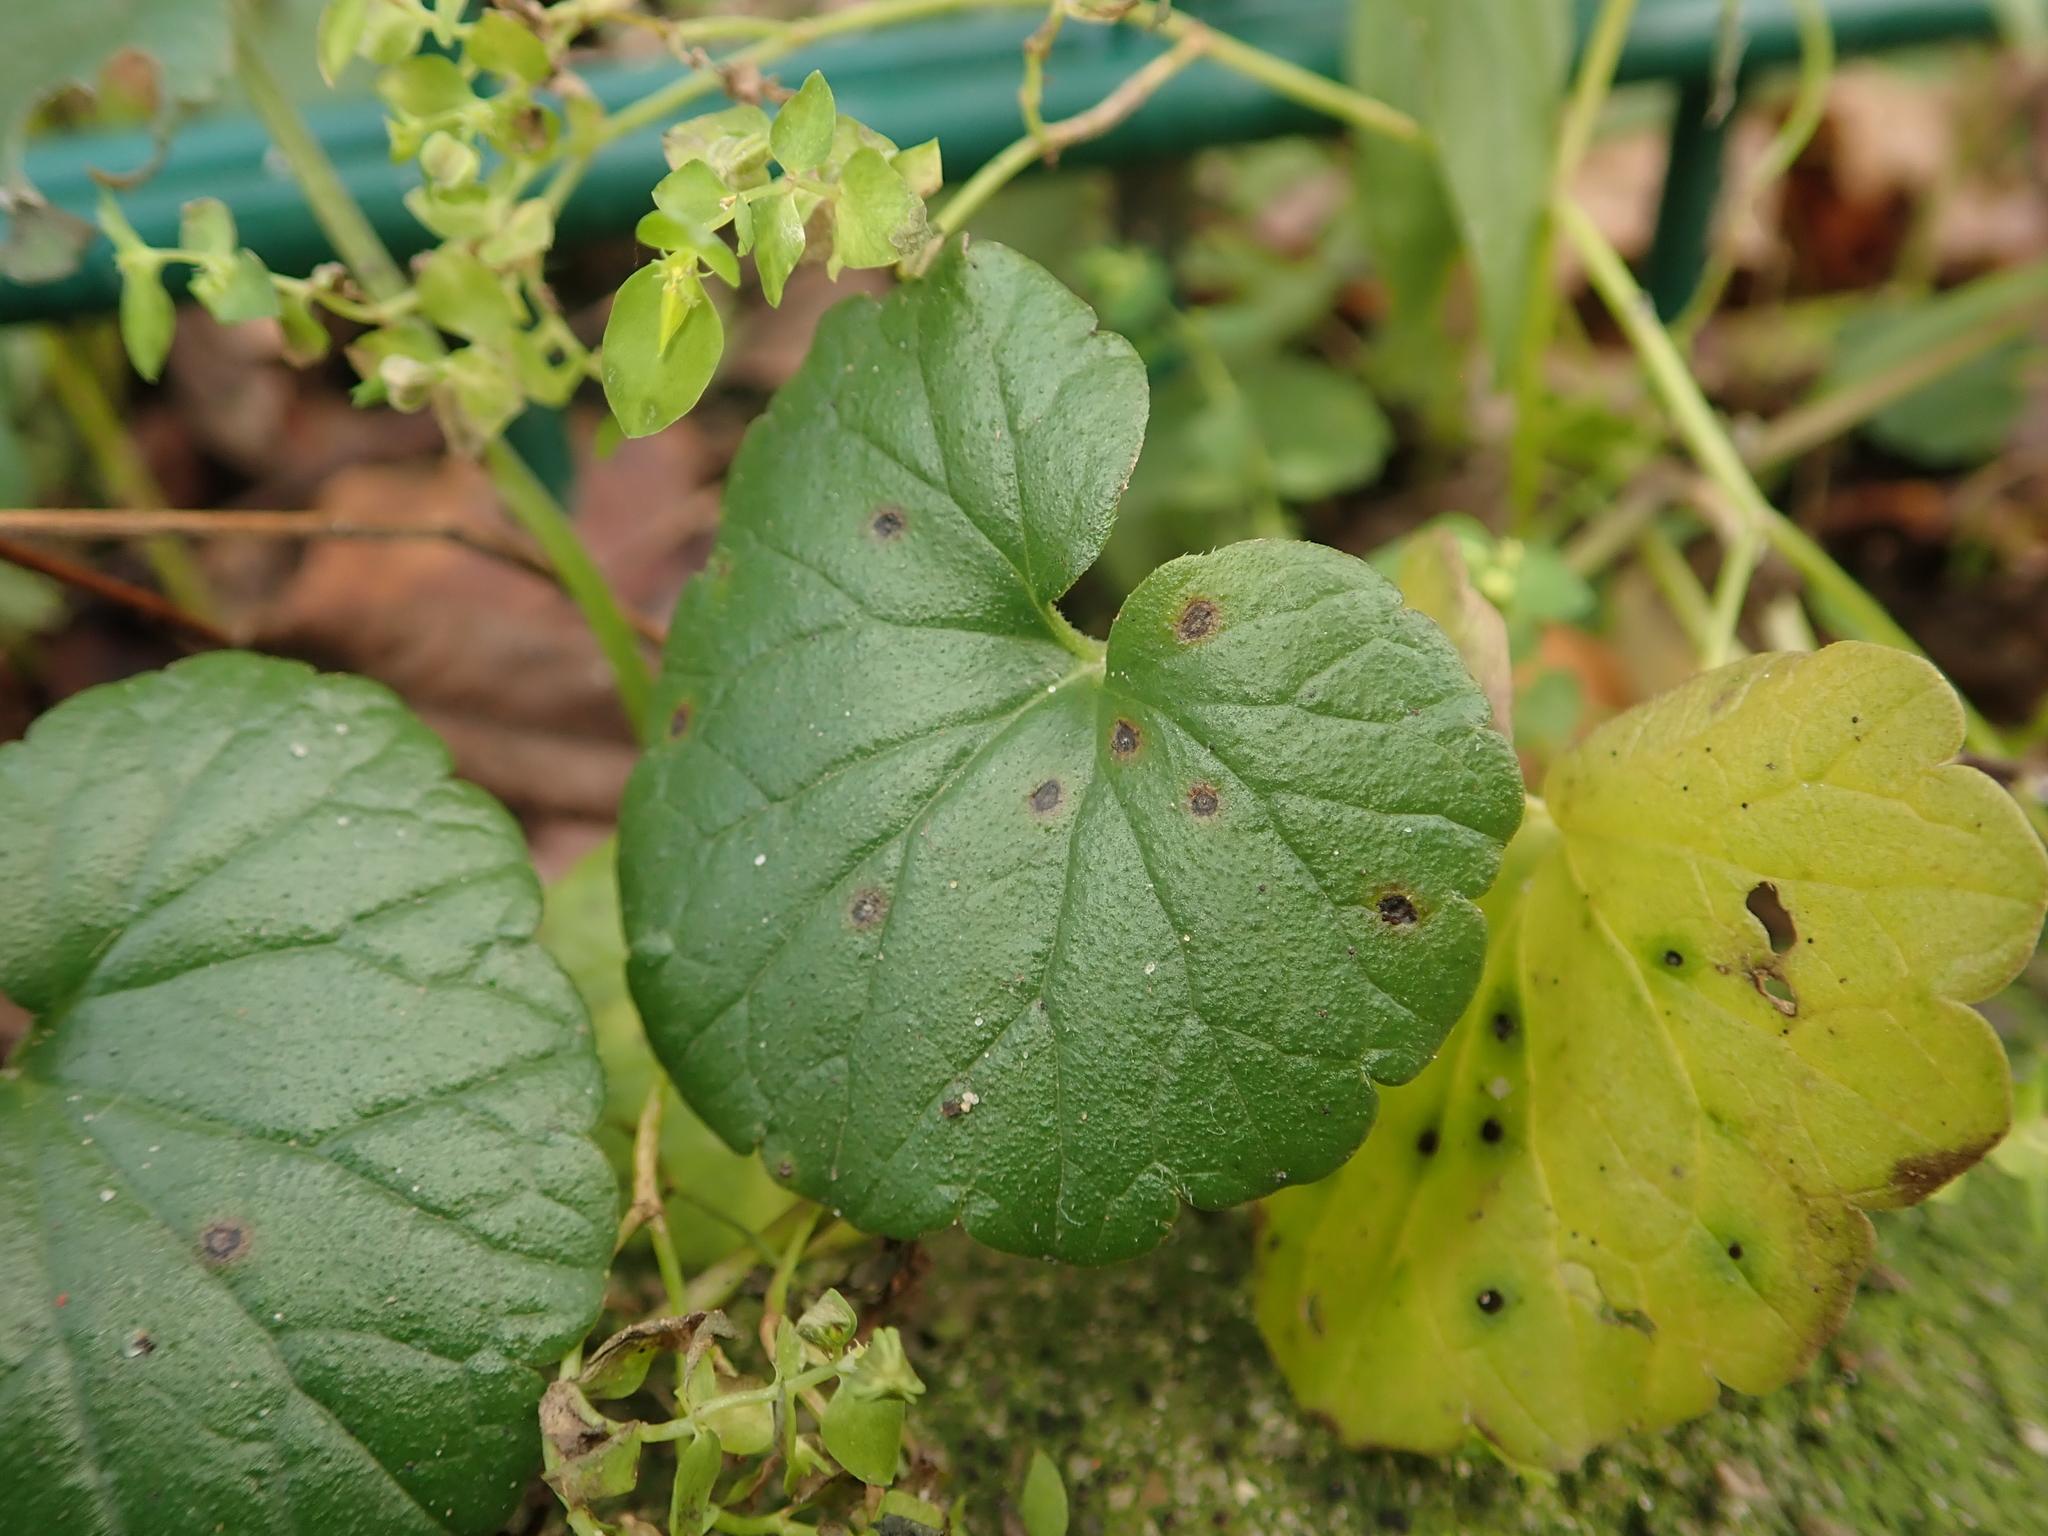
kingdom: Plantae
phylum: Tracheophyta
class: Magnoliopsida
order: Lamiales
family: Lamiaceae
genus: Glechoma
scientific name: Glechoma hederacea
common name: Ground ivy
